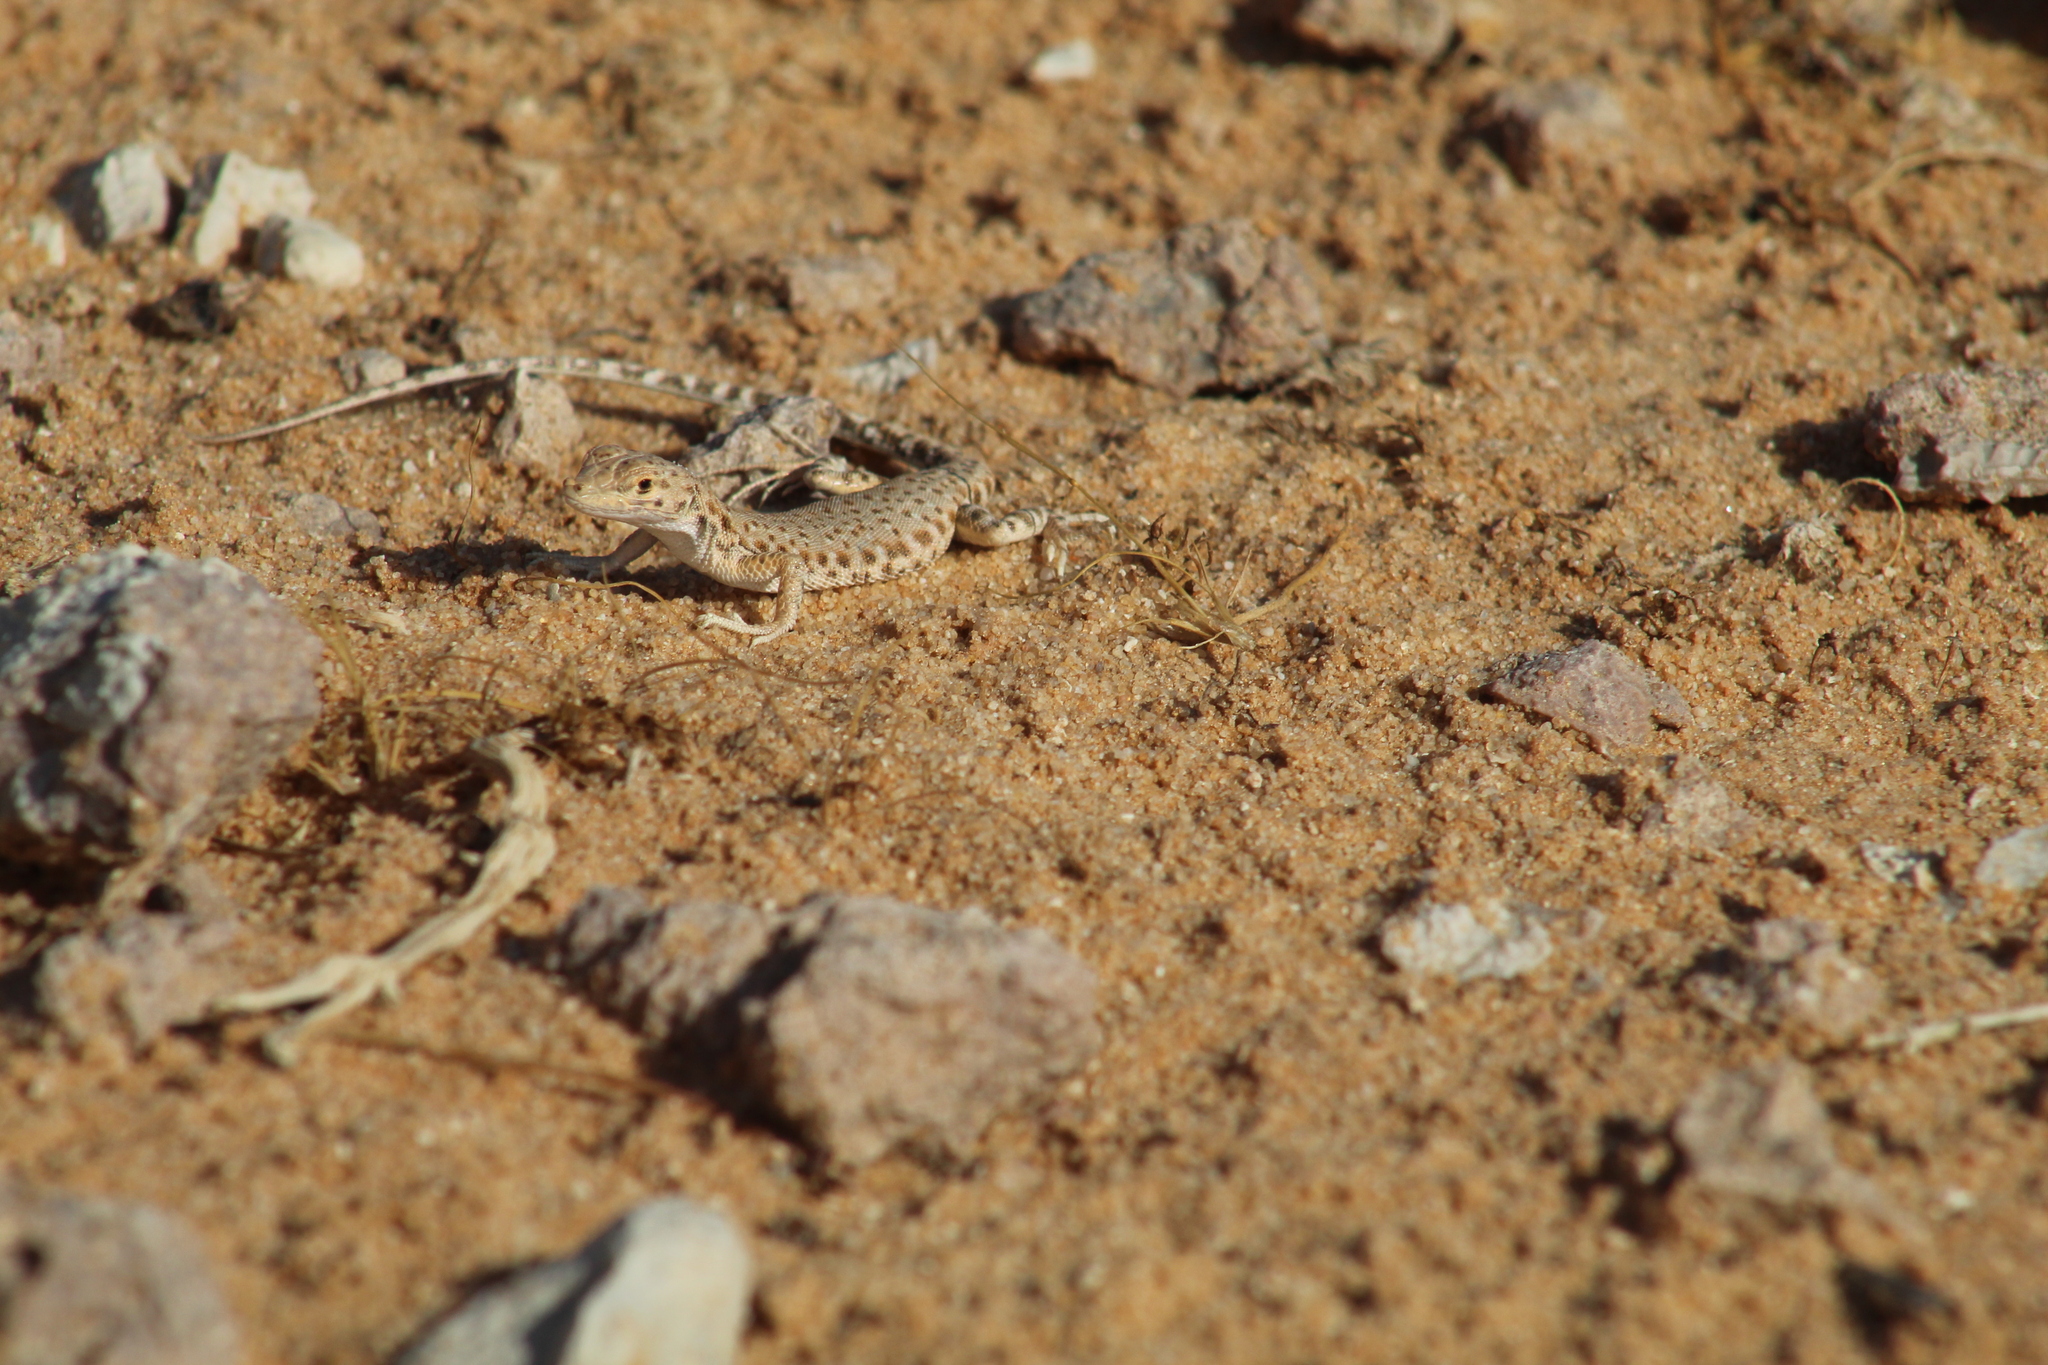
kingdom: Animalia
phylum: Chordata
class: Squamata
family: Lacertidae
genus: Mesalina
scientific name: Mesalina brevirostris
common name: Blanford's short-nosed desert lizard
